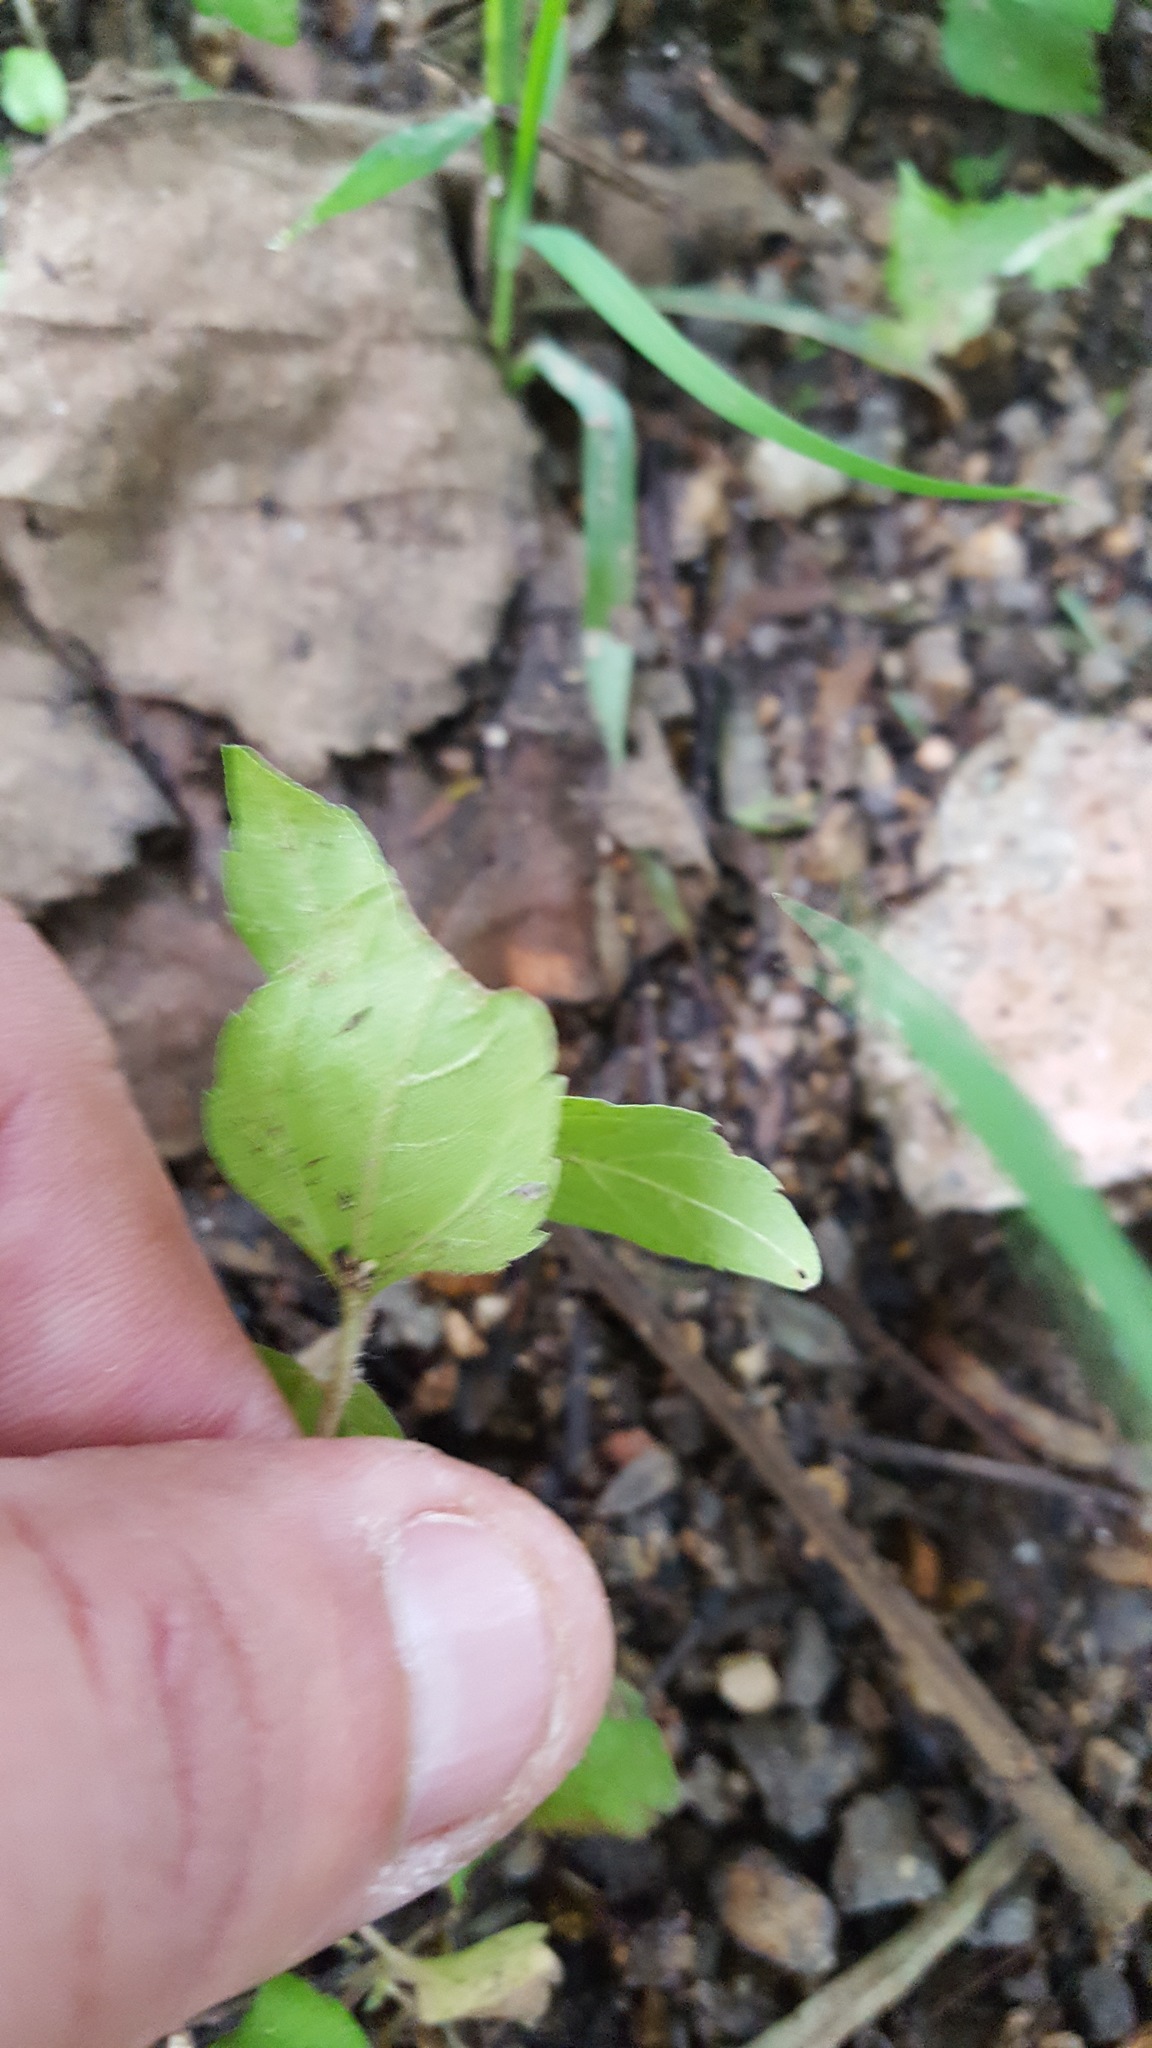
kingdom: Plantae
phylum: Tracheophyta
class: Magnoliopsida
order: Asterales
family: Asteraceae
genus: Calyptocarpus
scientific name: Calyptocarpus vialis
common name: Straggler daisy
